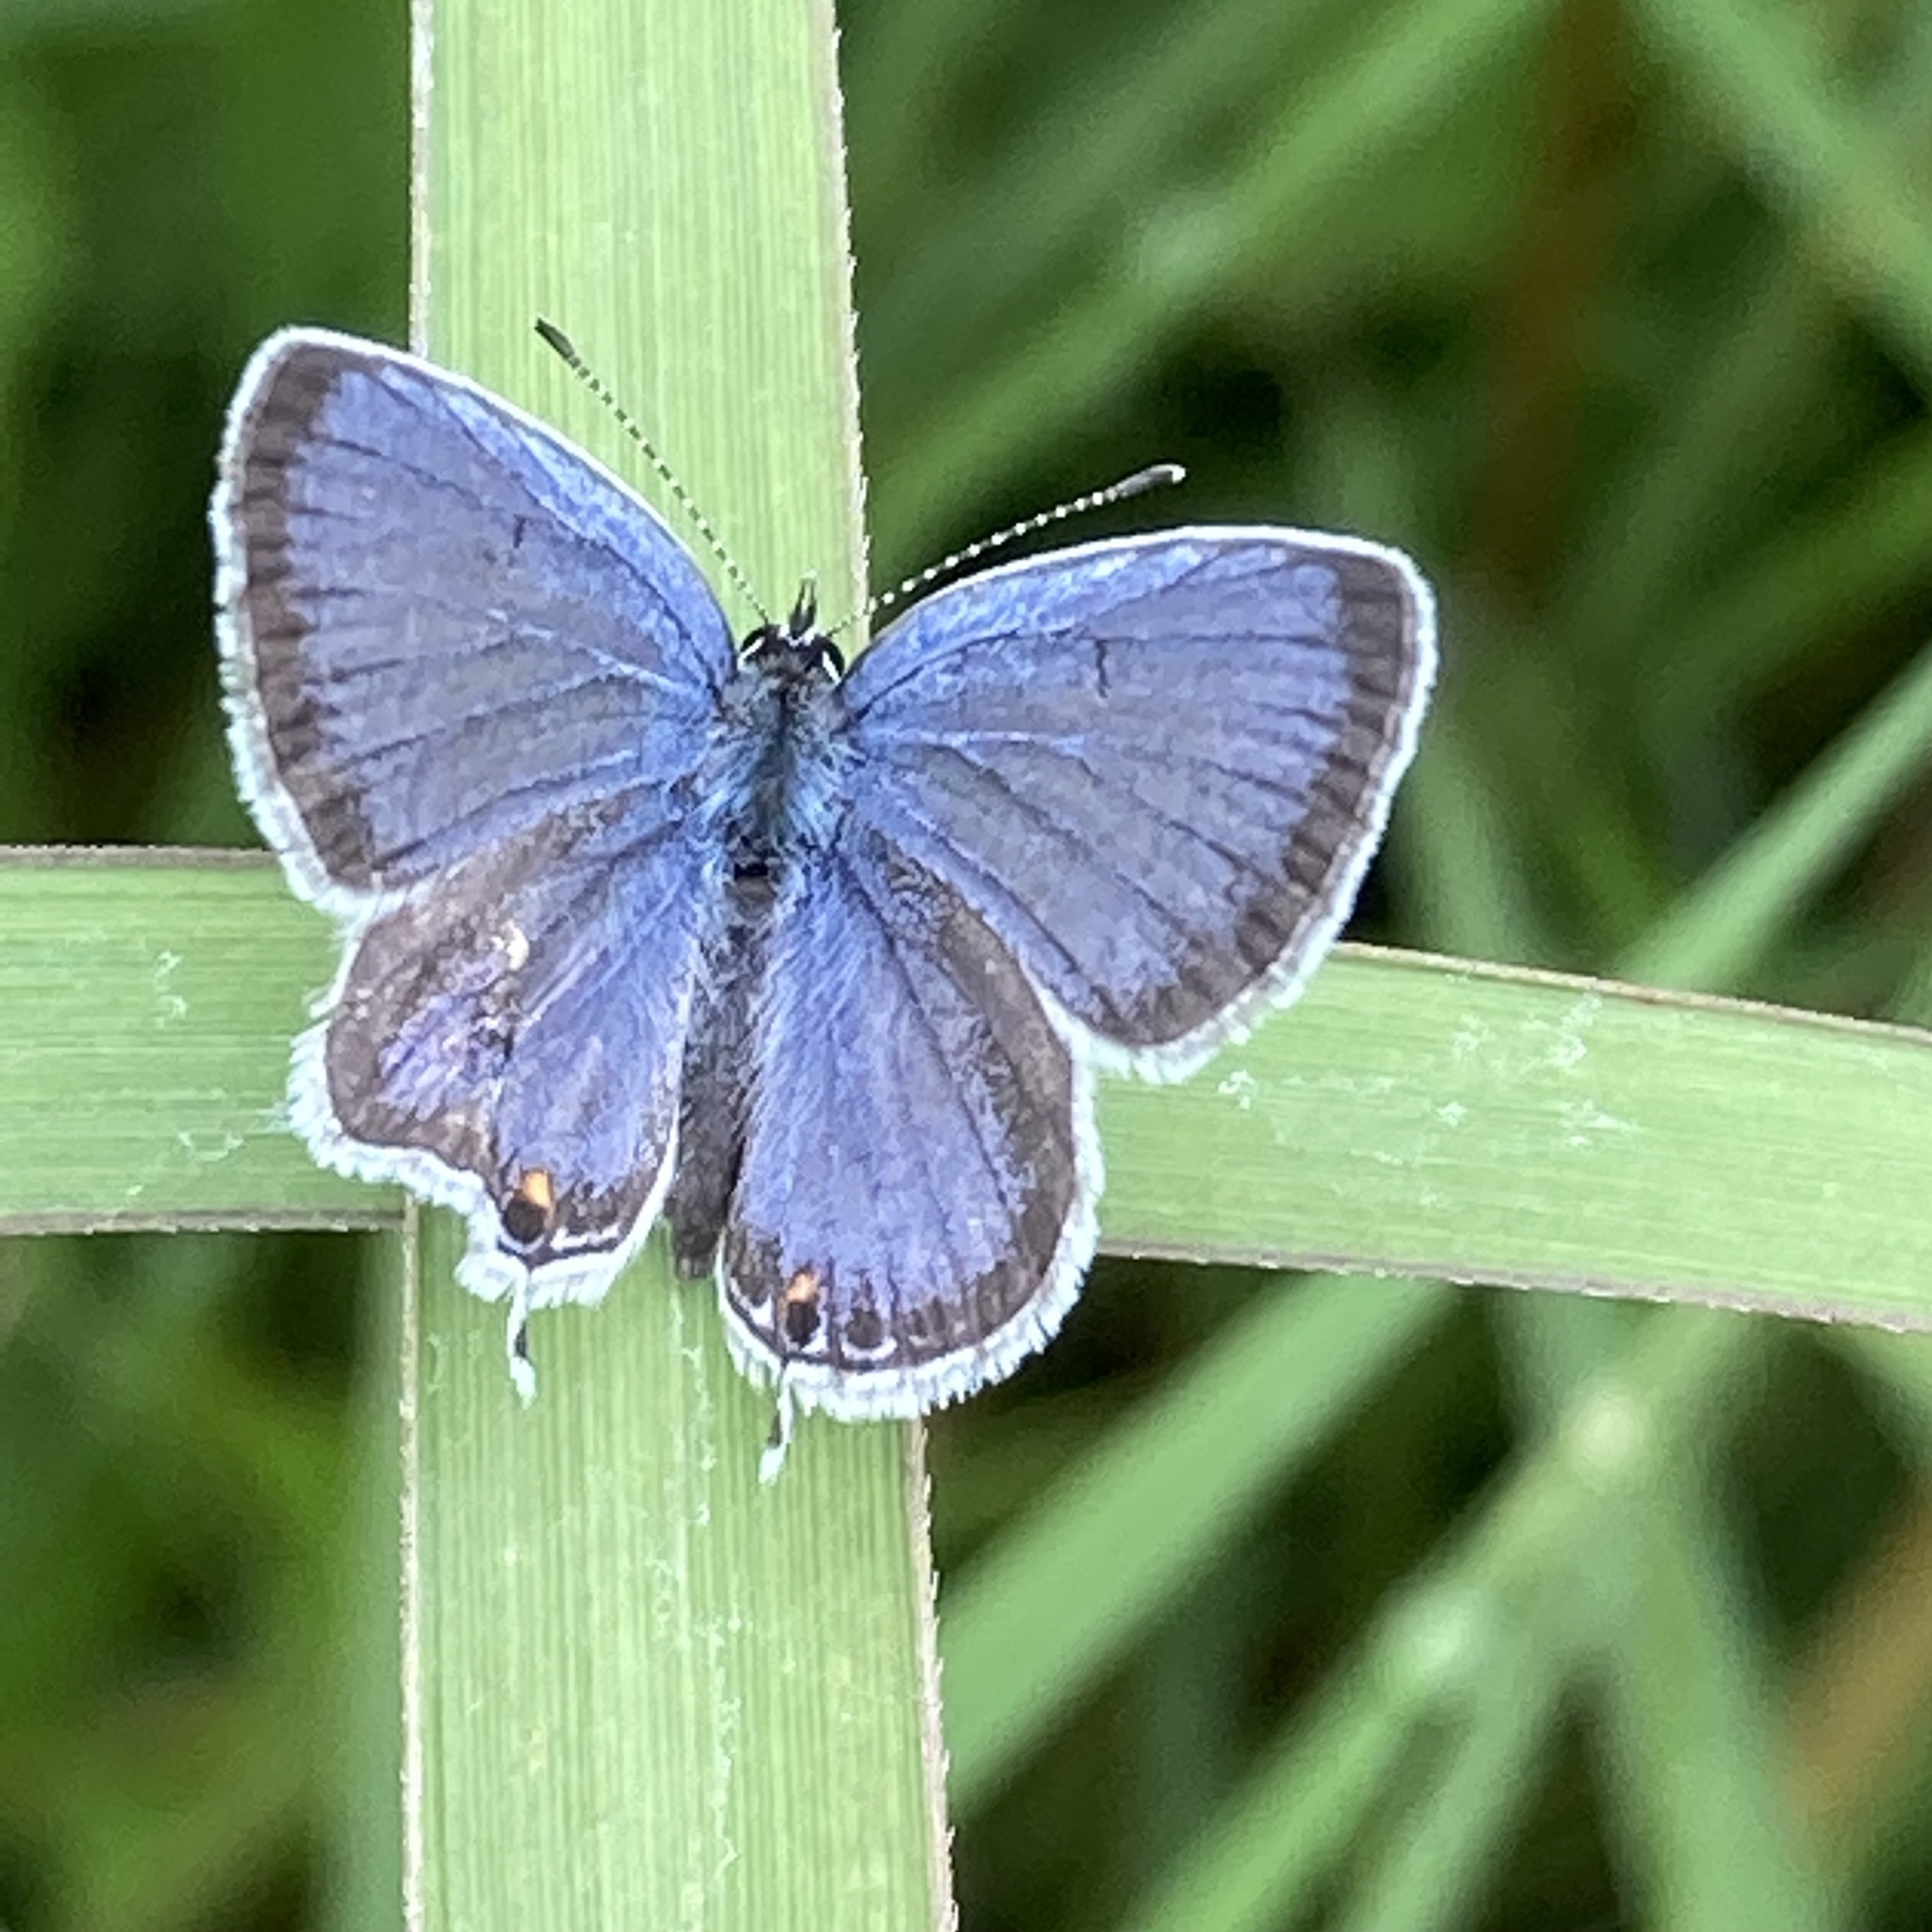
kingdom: Animalia
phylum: Arthropoda
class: Insecta
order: Lepidoptera
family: Lycaenidae
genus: Elkalyce
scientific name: Elkalyce comyntas
